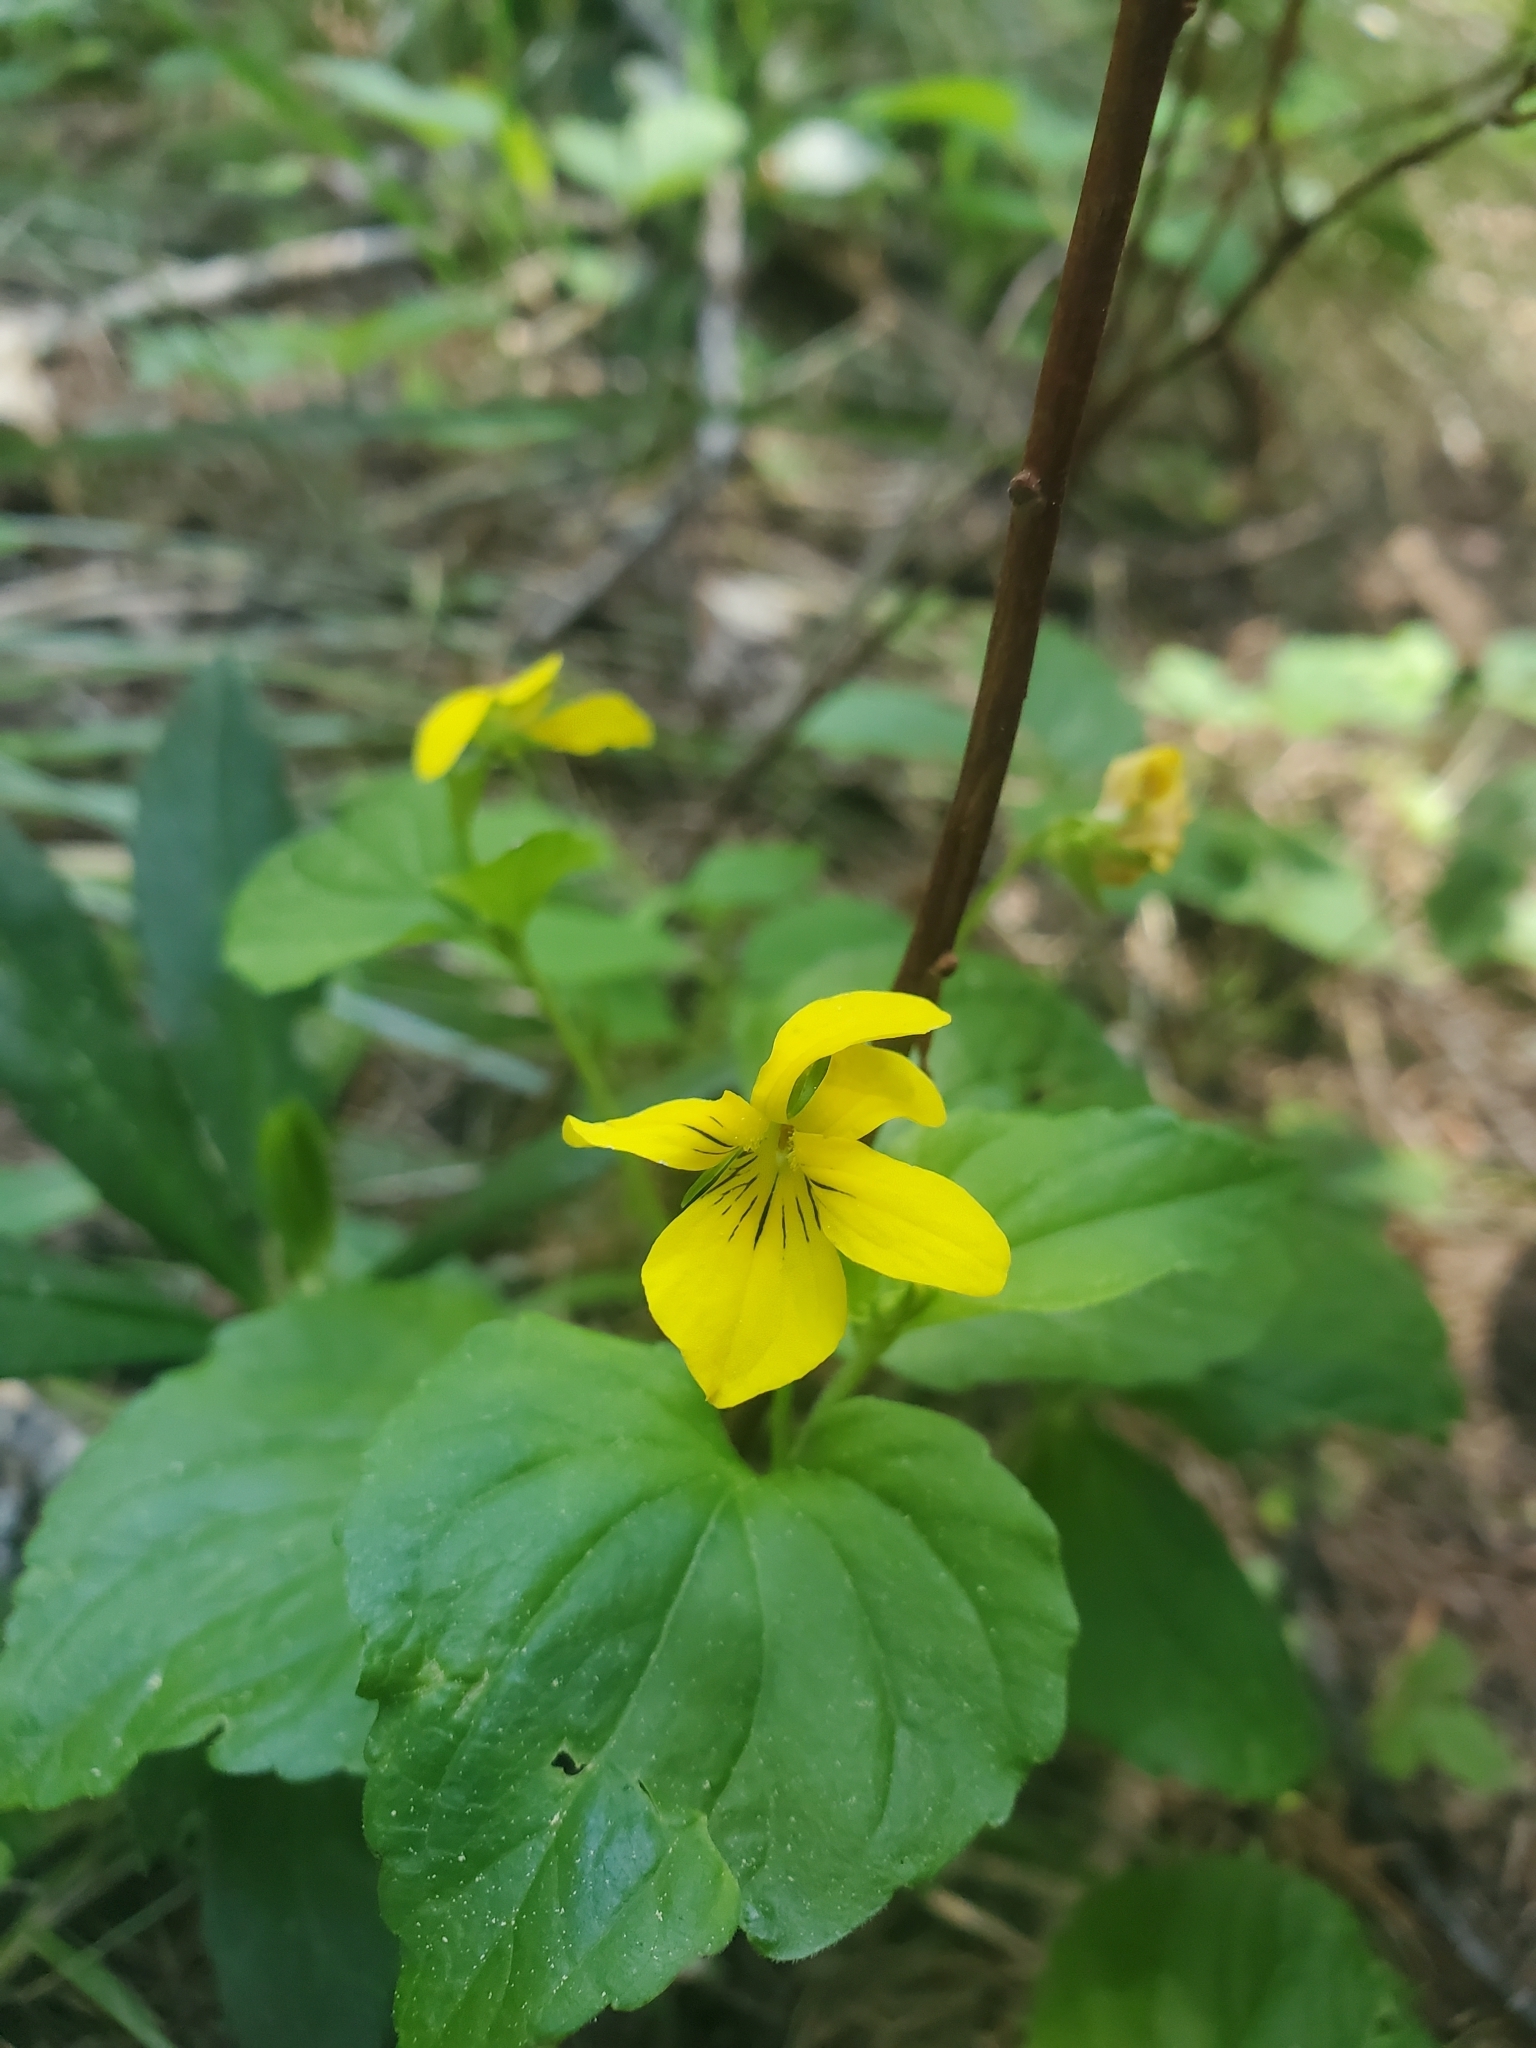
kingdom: Plantae
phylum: Tracheophyta
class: Magnoliopsida
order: Malpighiales
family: Violaceae
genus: Viola
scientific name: Viola glabella
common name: Stream violet
